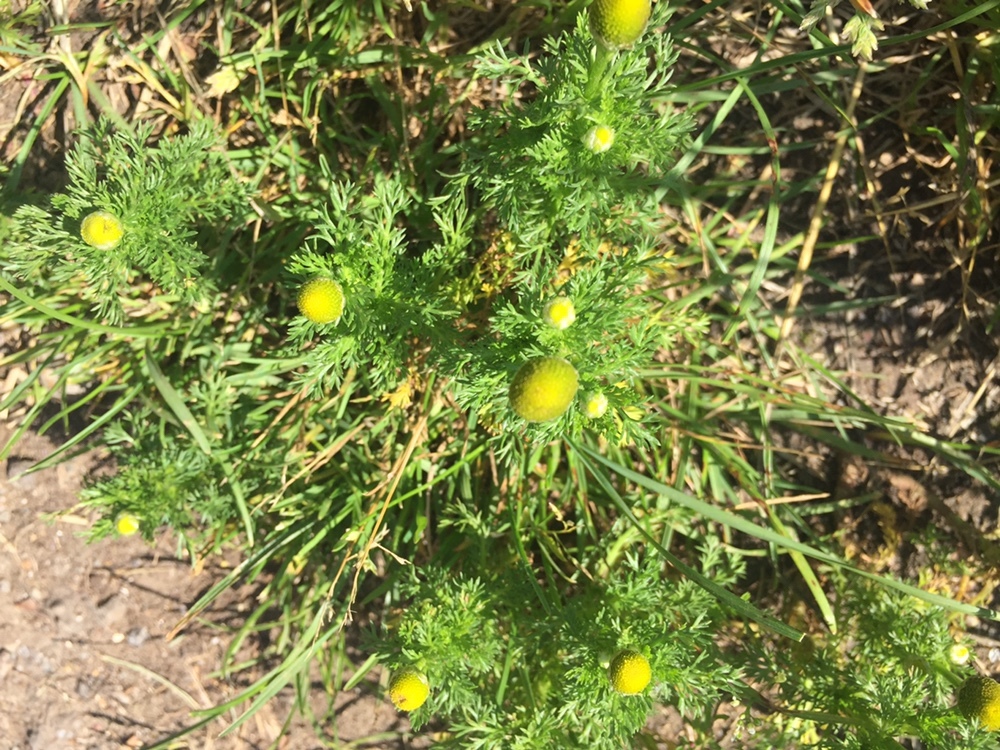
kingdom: Plantae
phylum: Tracheophyta
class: Magnoliopsida
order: Asterales
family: Asteraceae
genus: Matricaria
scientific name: Matricaria discoidea
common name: Disc mayweed
